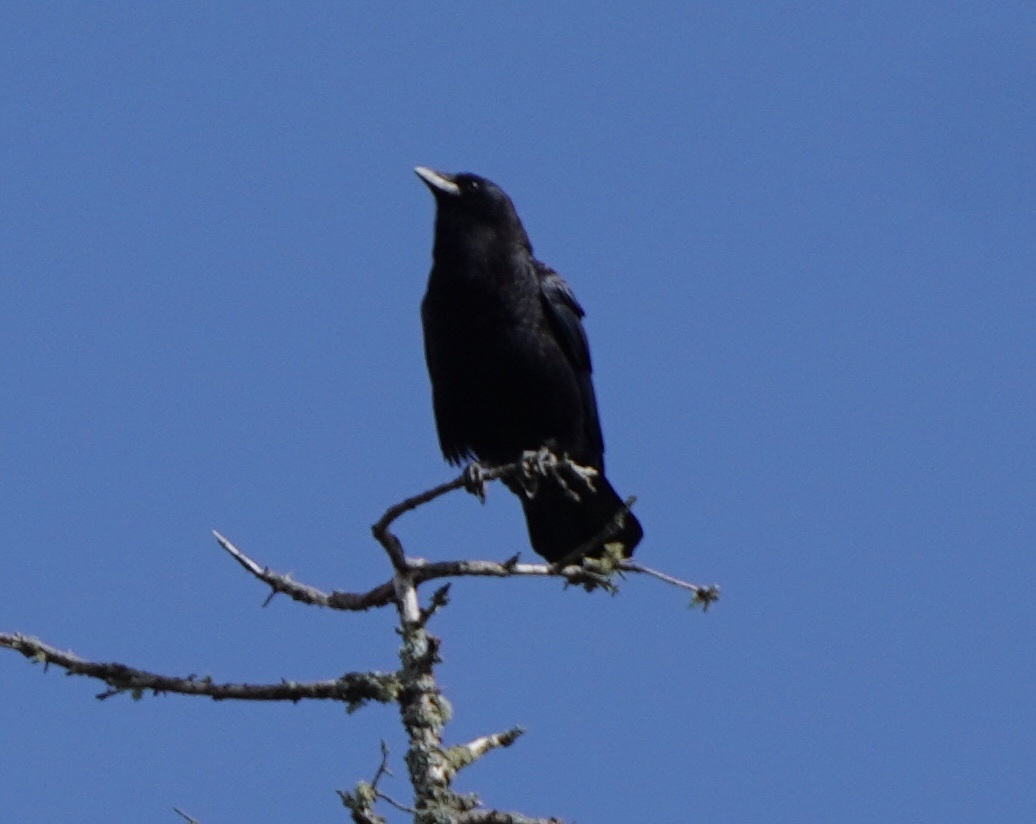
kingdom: Animalia
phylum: Chordata
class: Aves
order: Passeriformes
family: Corvidae
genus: Corvus
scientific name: Corvus brachyrhynchos
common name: American crow
